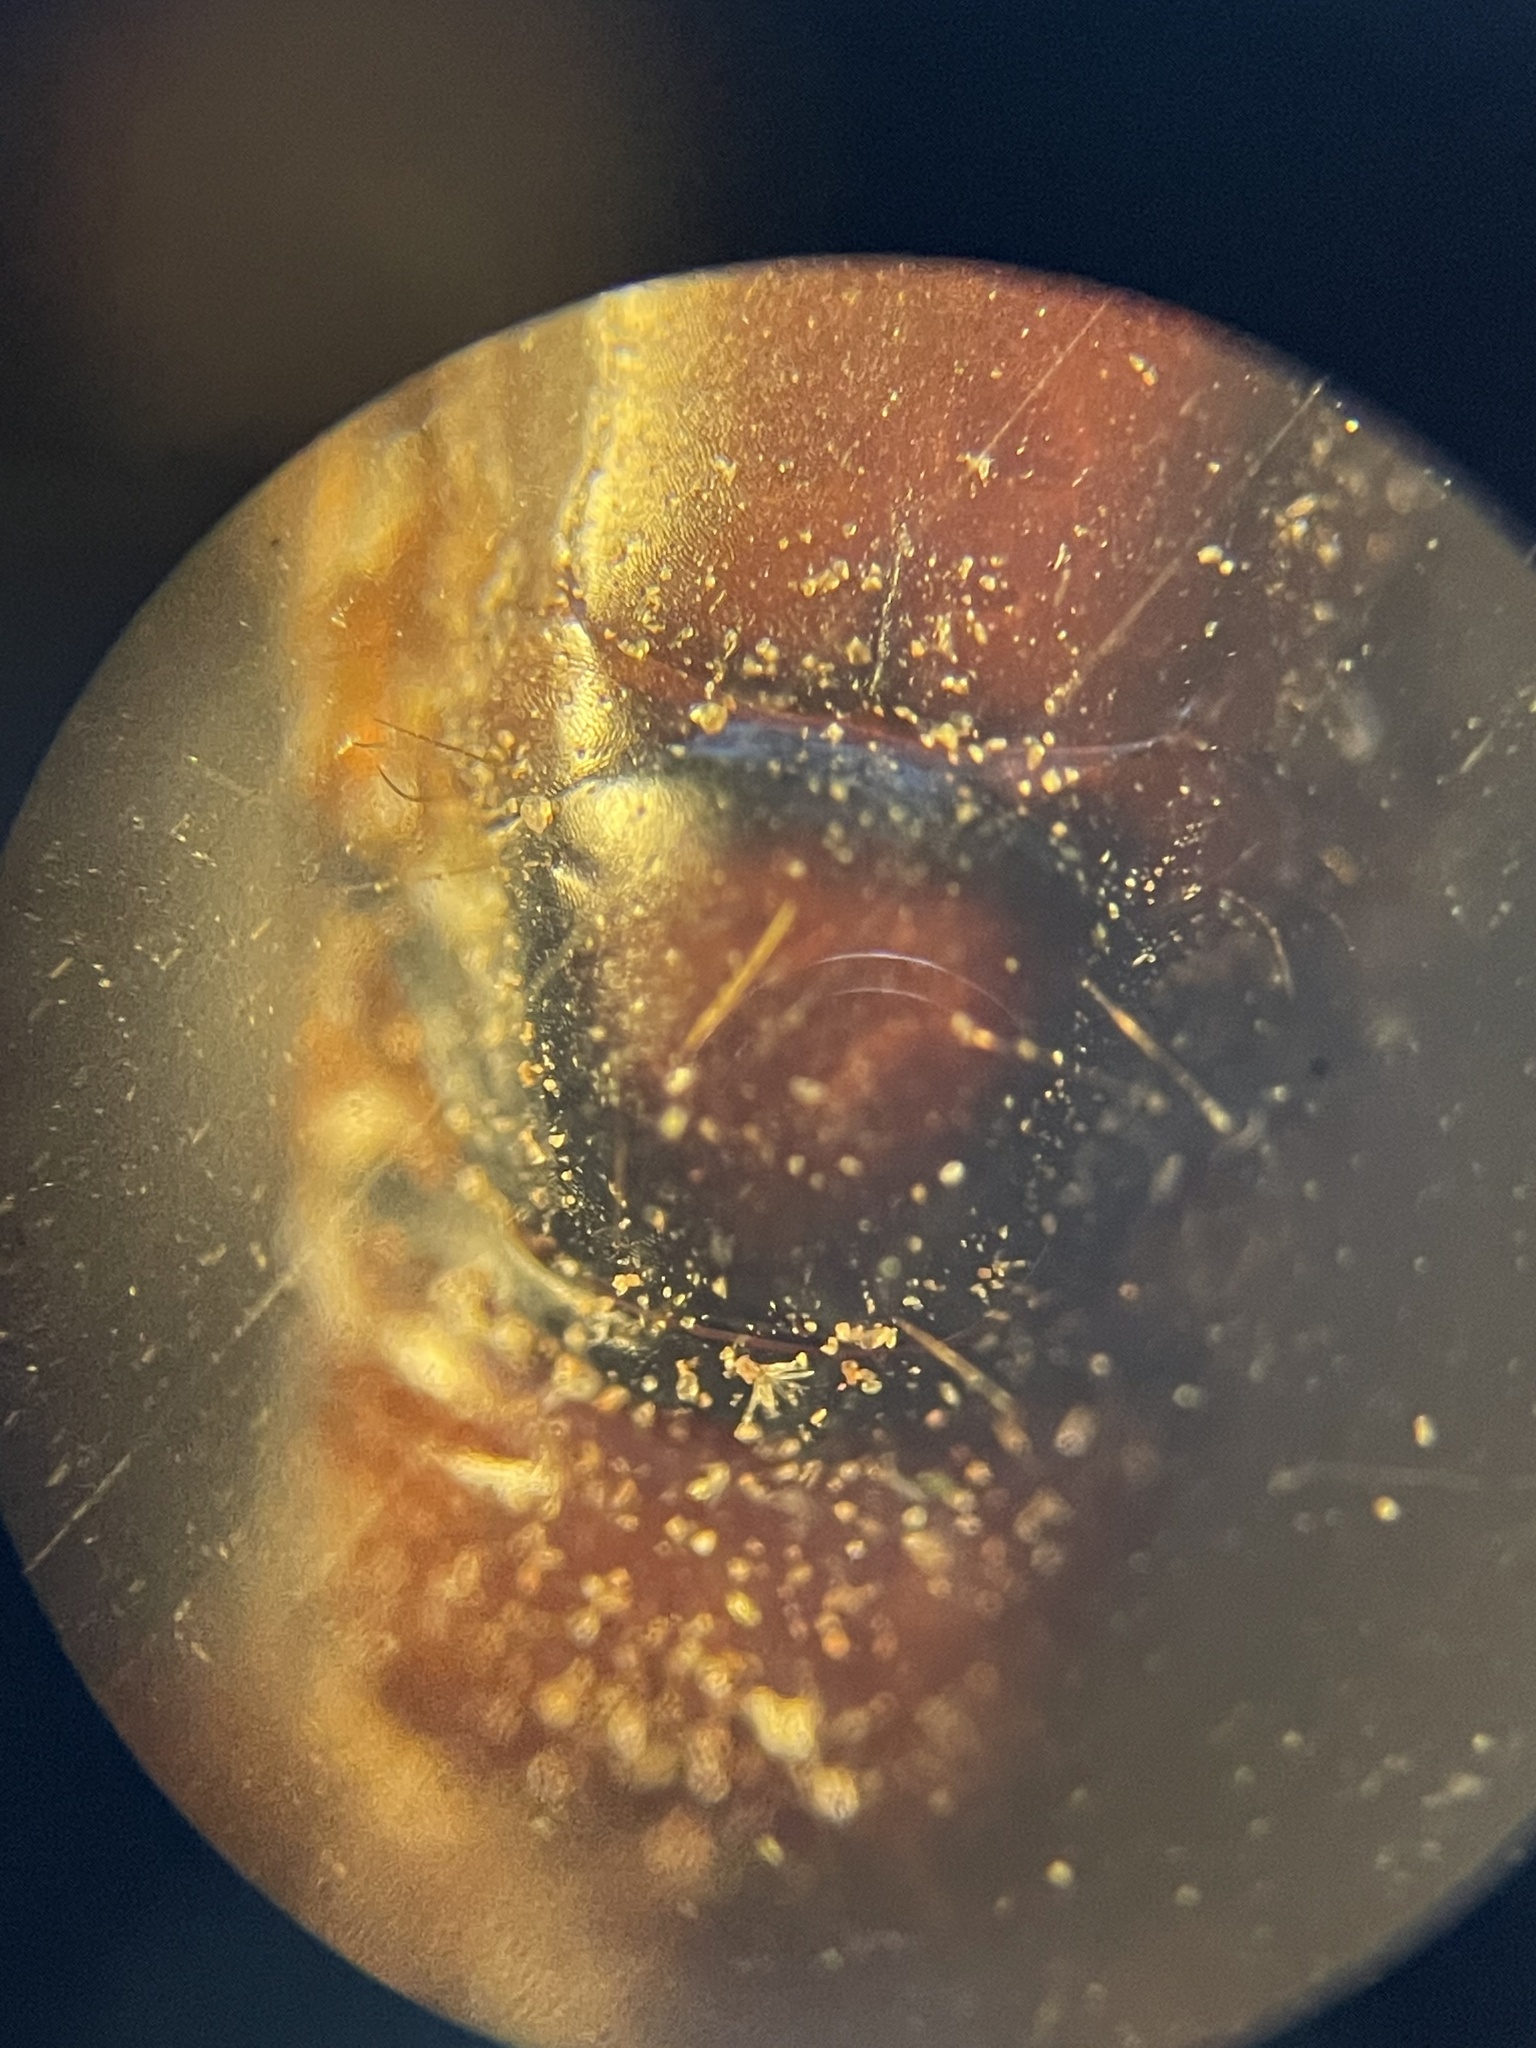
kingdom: Animalia
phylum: Arthropoda
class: Insecta
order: Hymenoptera
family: Formicidae
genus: Camponotus
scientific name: Camponotus texanus
